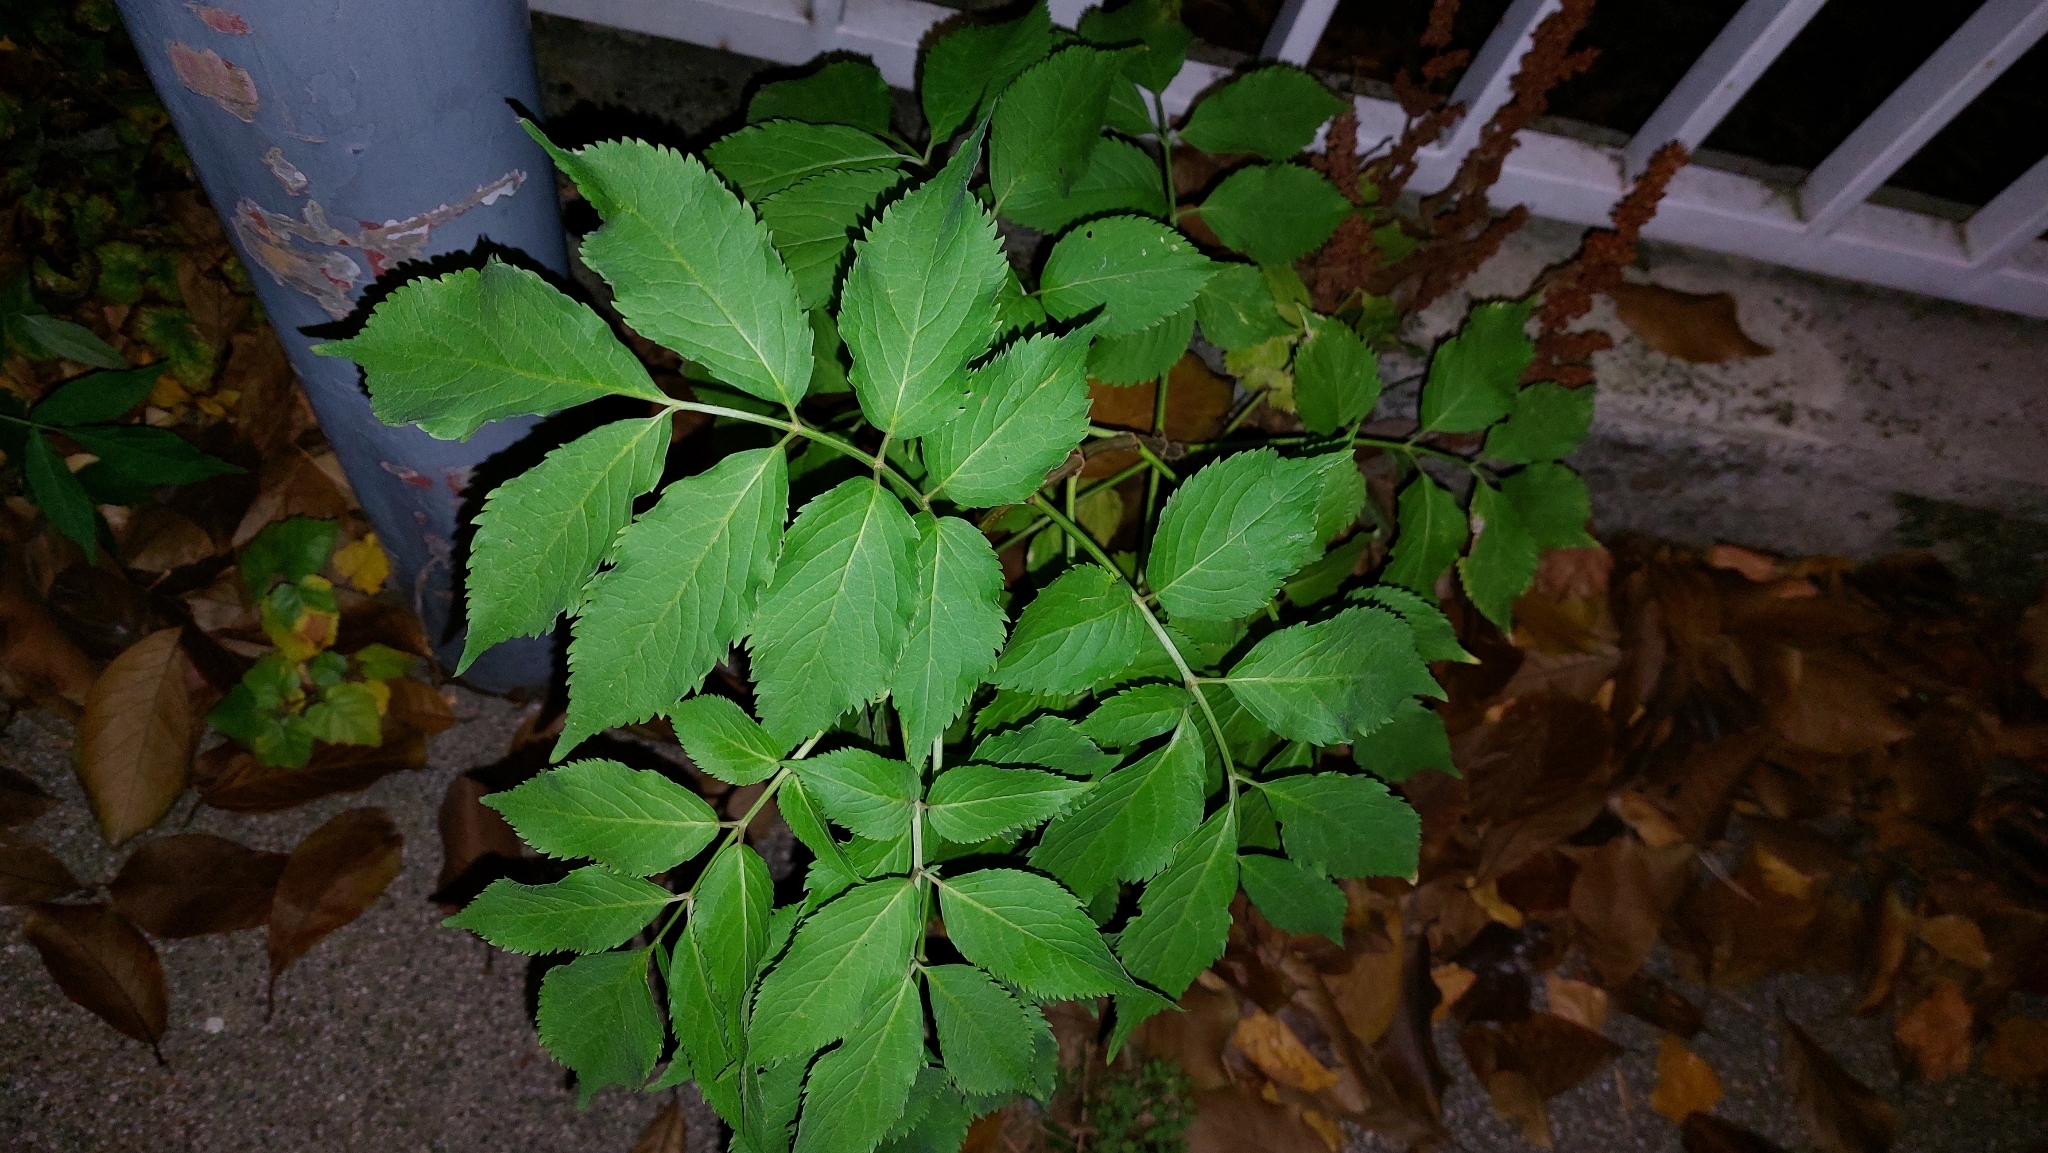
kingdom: Plantae
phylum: Tracheophyta
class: Magnoliopsida
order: Dipsacales
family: Viburnaceae
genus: Sambucus
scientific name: Sambucus nigra
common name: Elder
